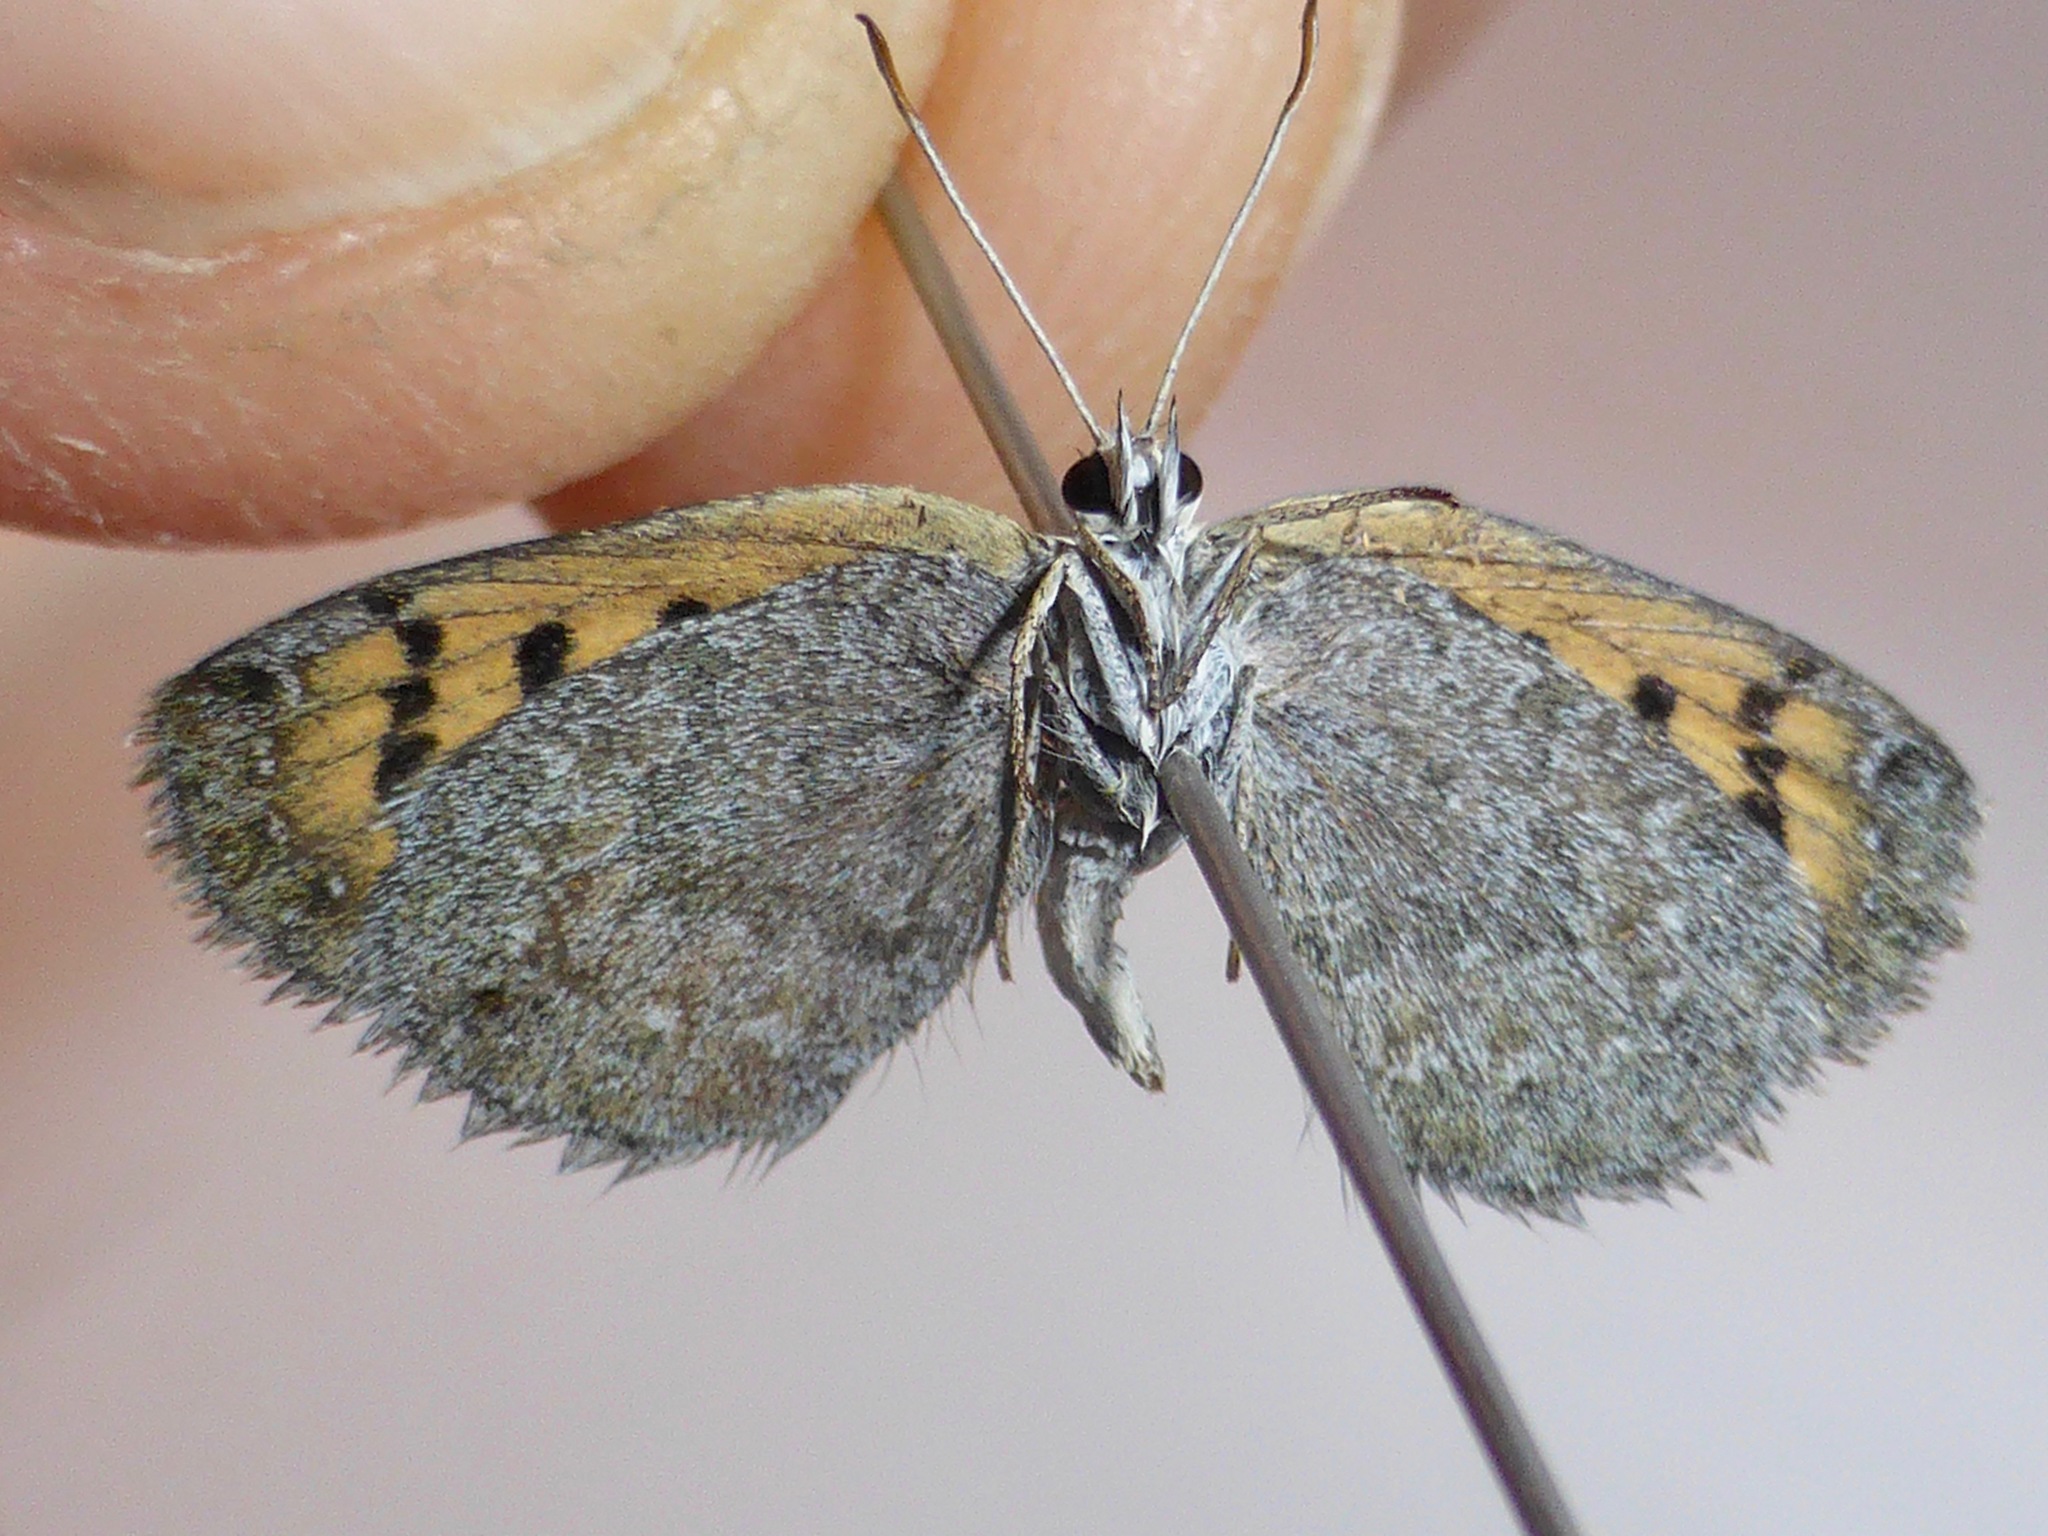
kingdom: Animalia
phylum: Arthropoda
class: Insecta
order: Lepidoptera
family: Lycaenidae
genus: Lycaena
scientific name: Lycaena tama
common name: Canterbury alpine boulder copper
